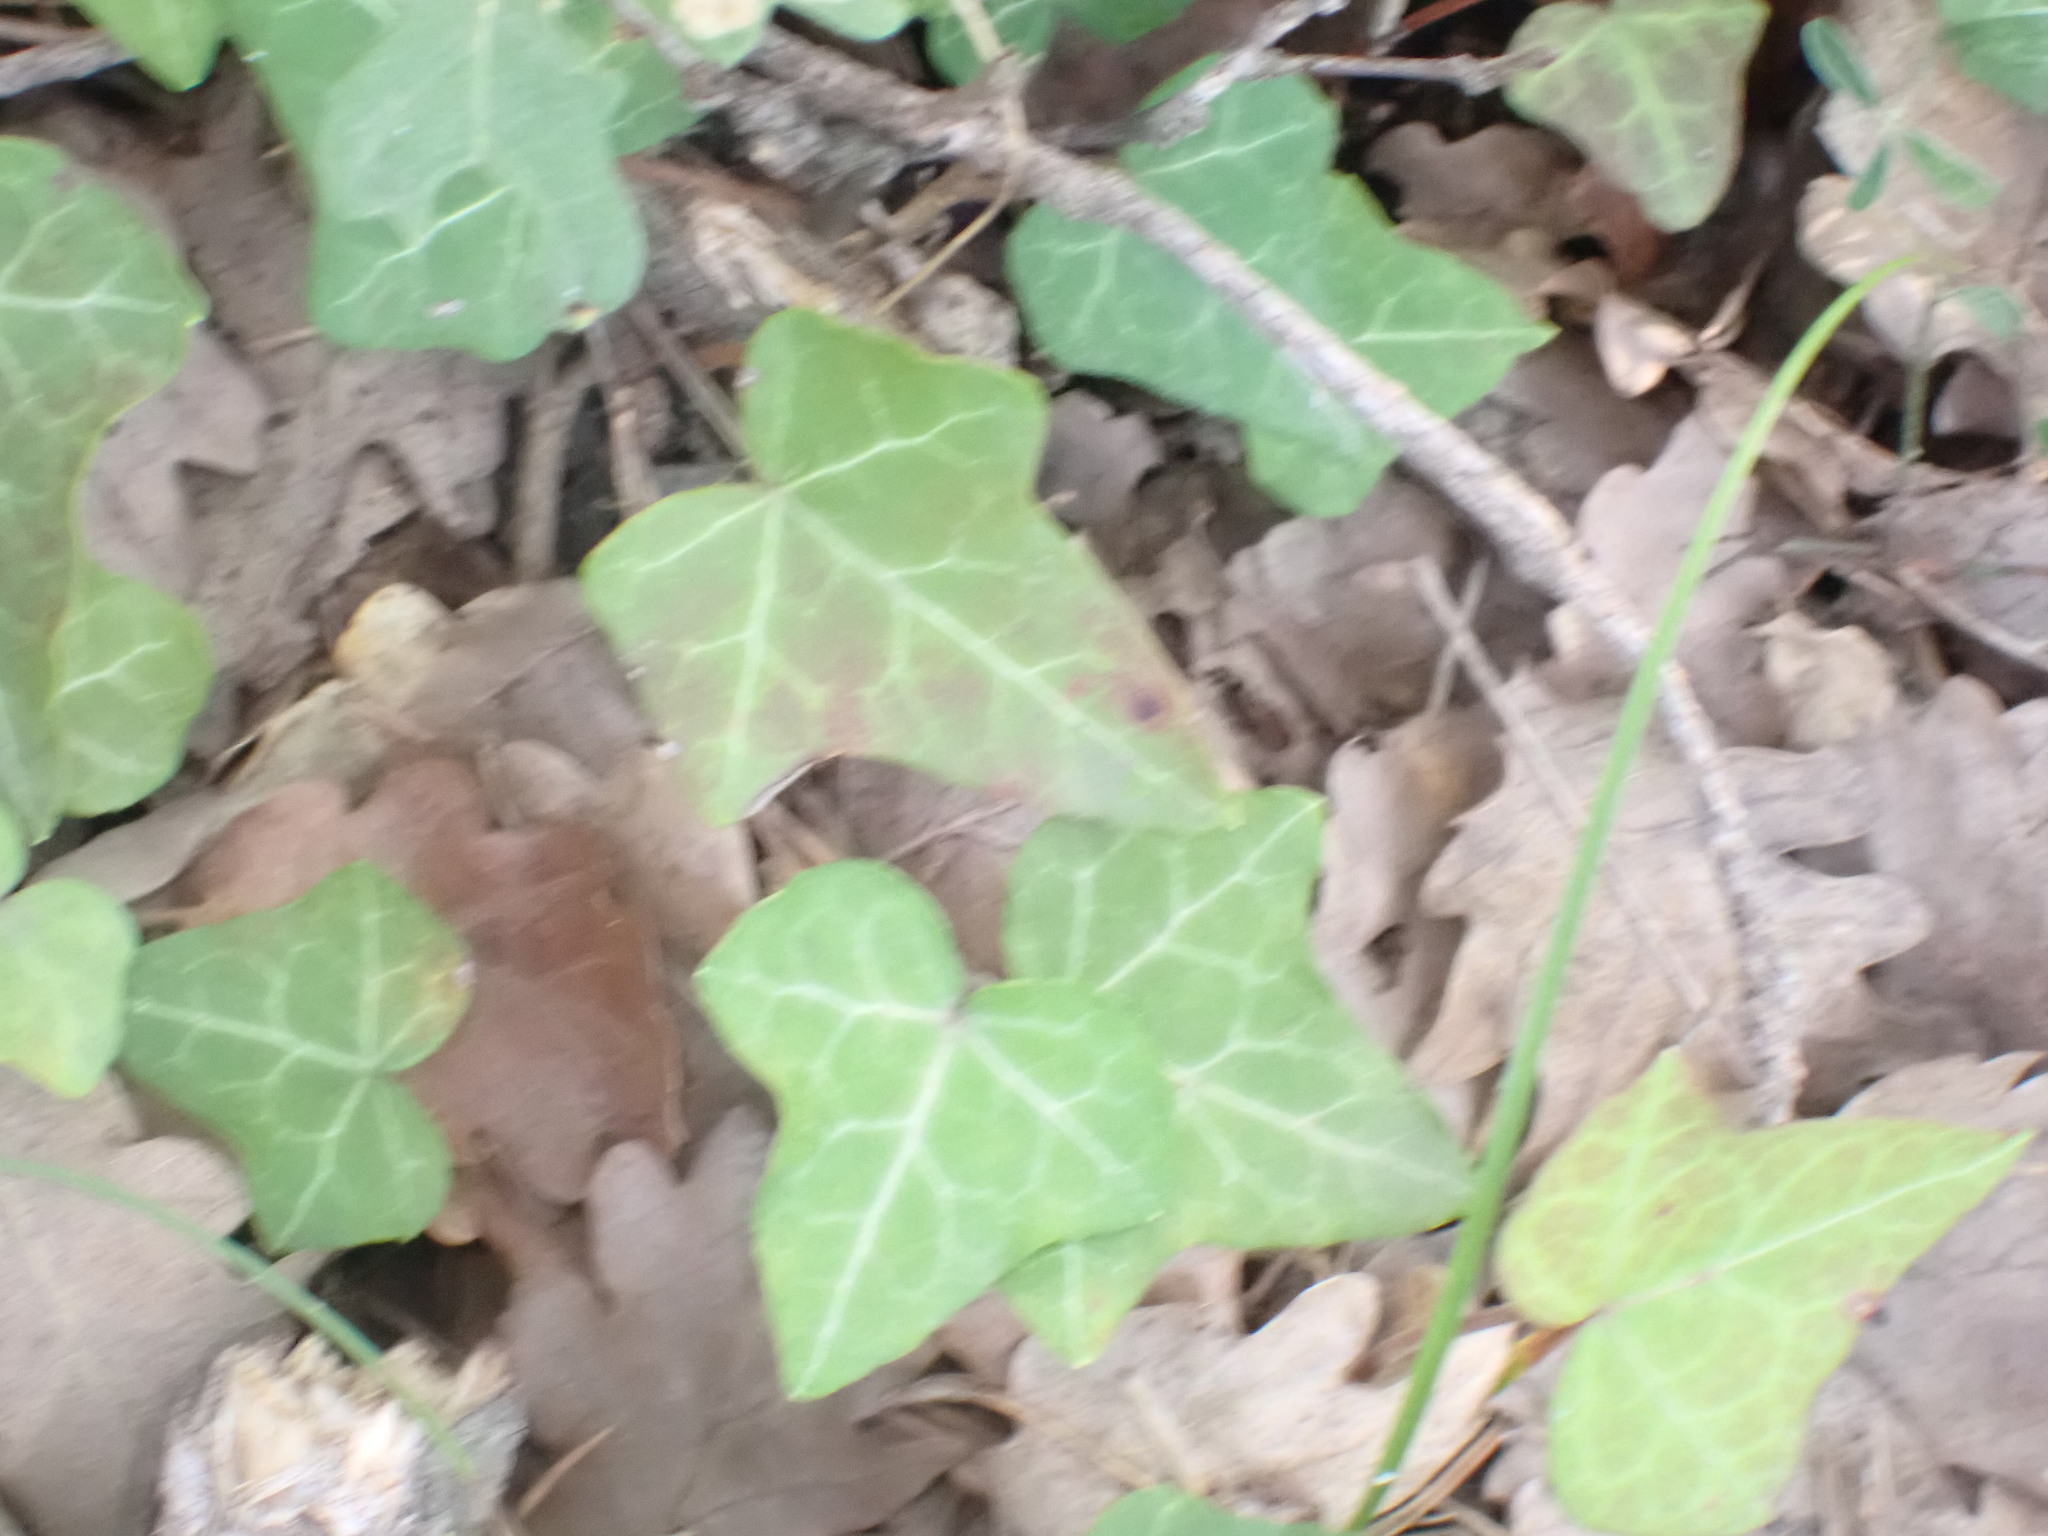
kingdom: Plantae
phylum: Tracheophyta
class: Magnoliopsida
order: Apiales
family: Araliaceae
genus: Hedera
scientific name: Hedera helix
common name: Ivy
